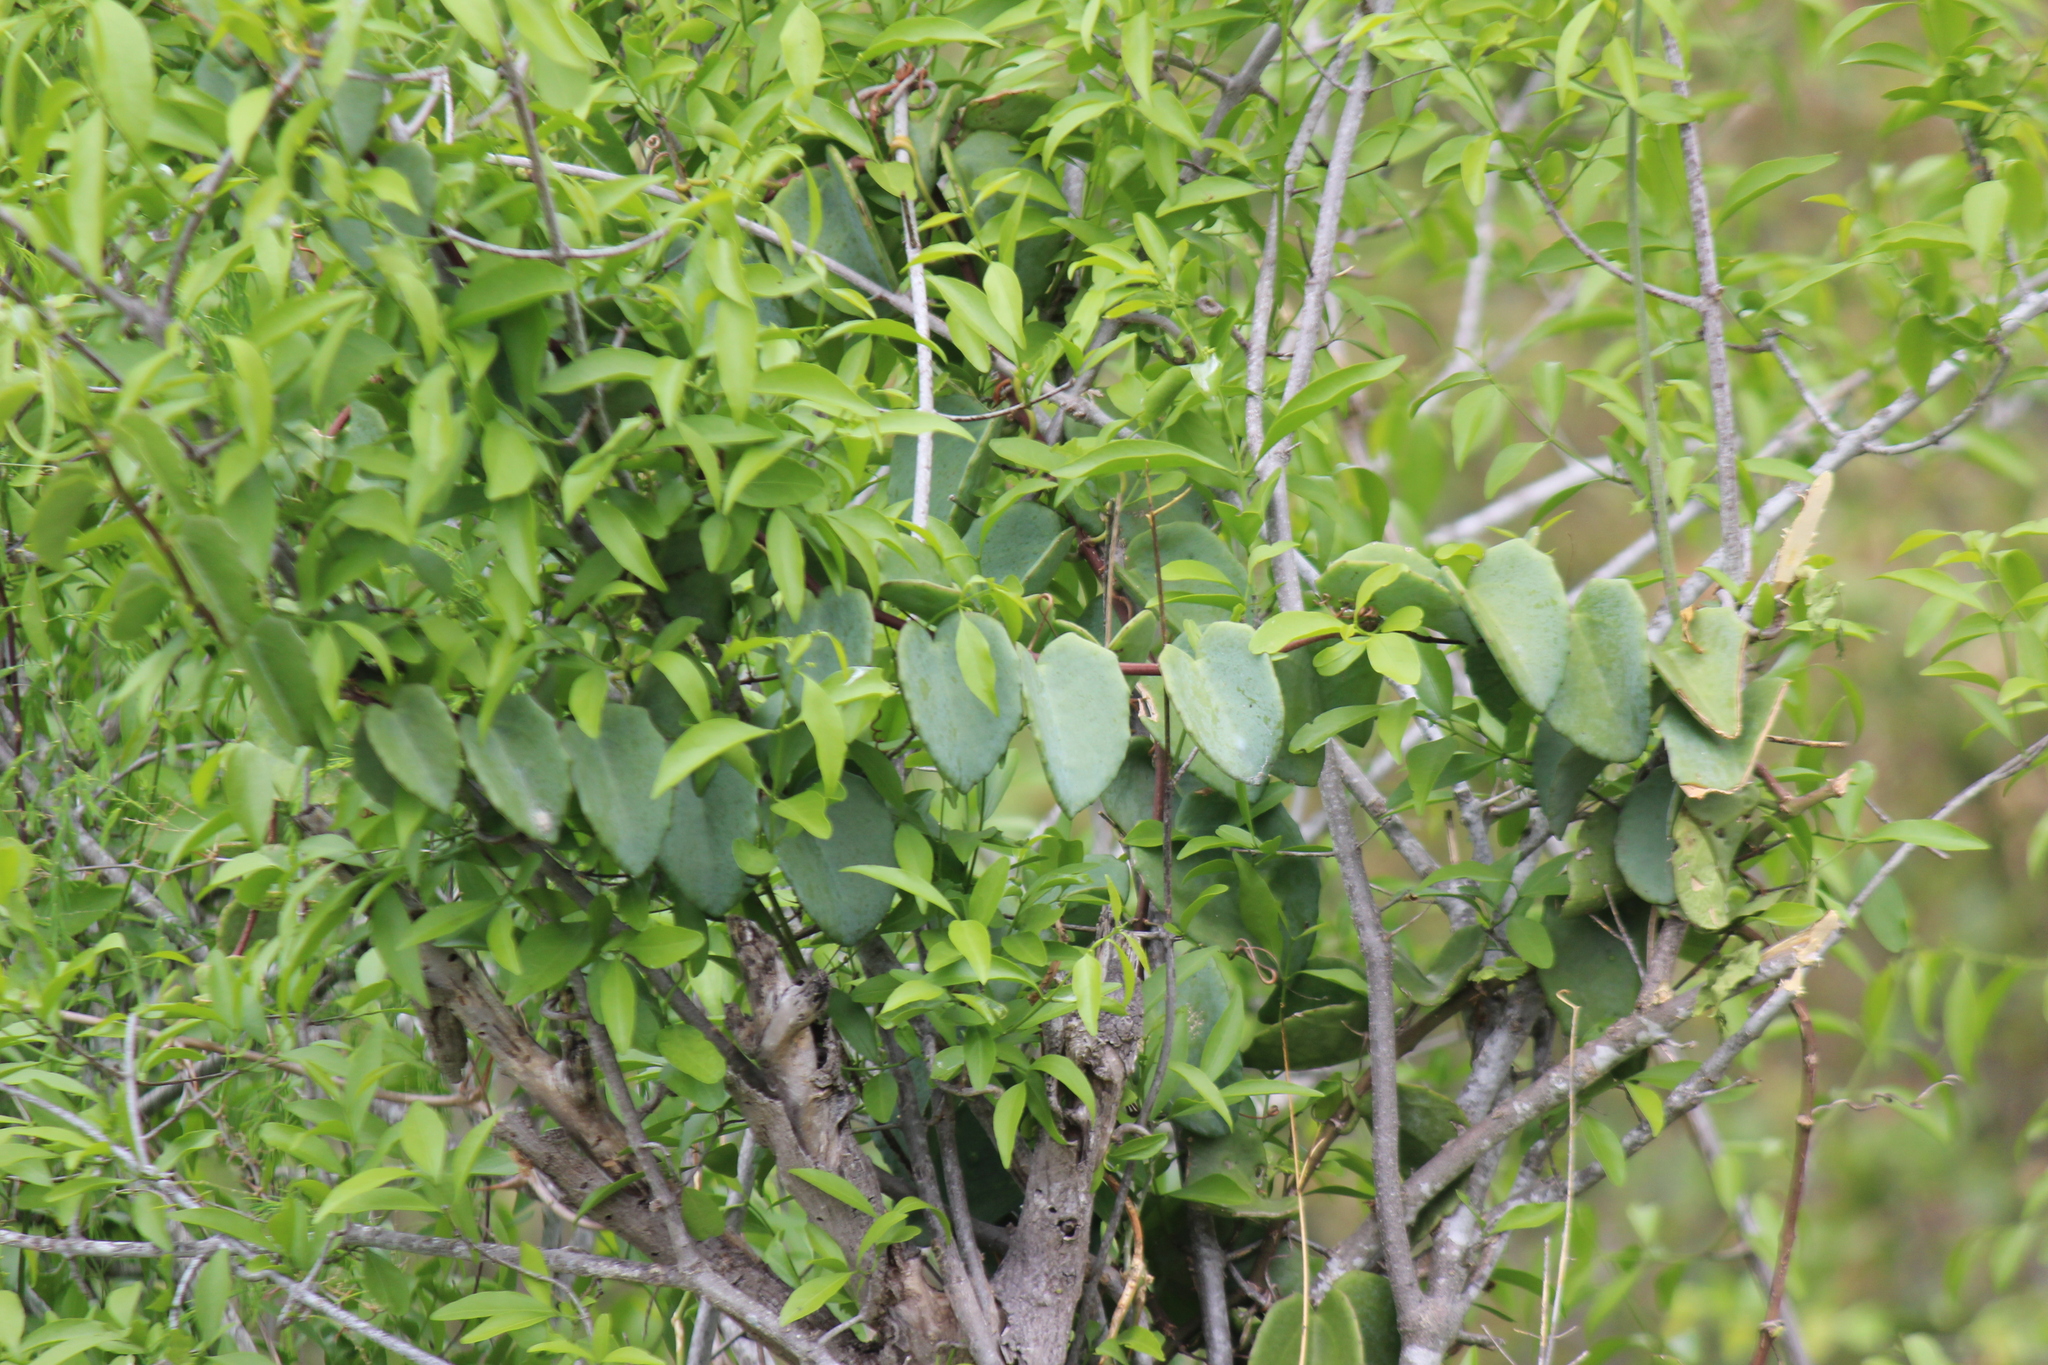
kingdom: Plantae
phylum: Tracheophyta
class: Magnoliopsida
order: Vitales
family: Vitaceae
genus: Cissus
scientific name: Cissus rotundifolia
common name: Arabian wax cissus
